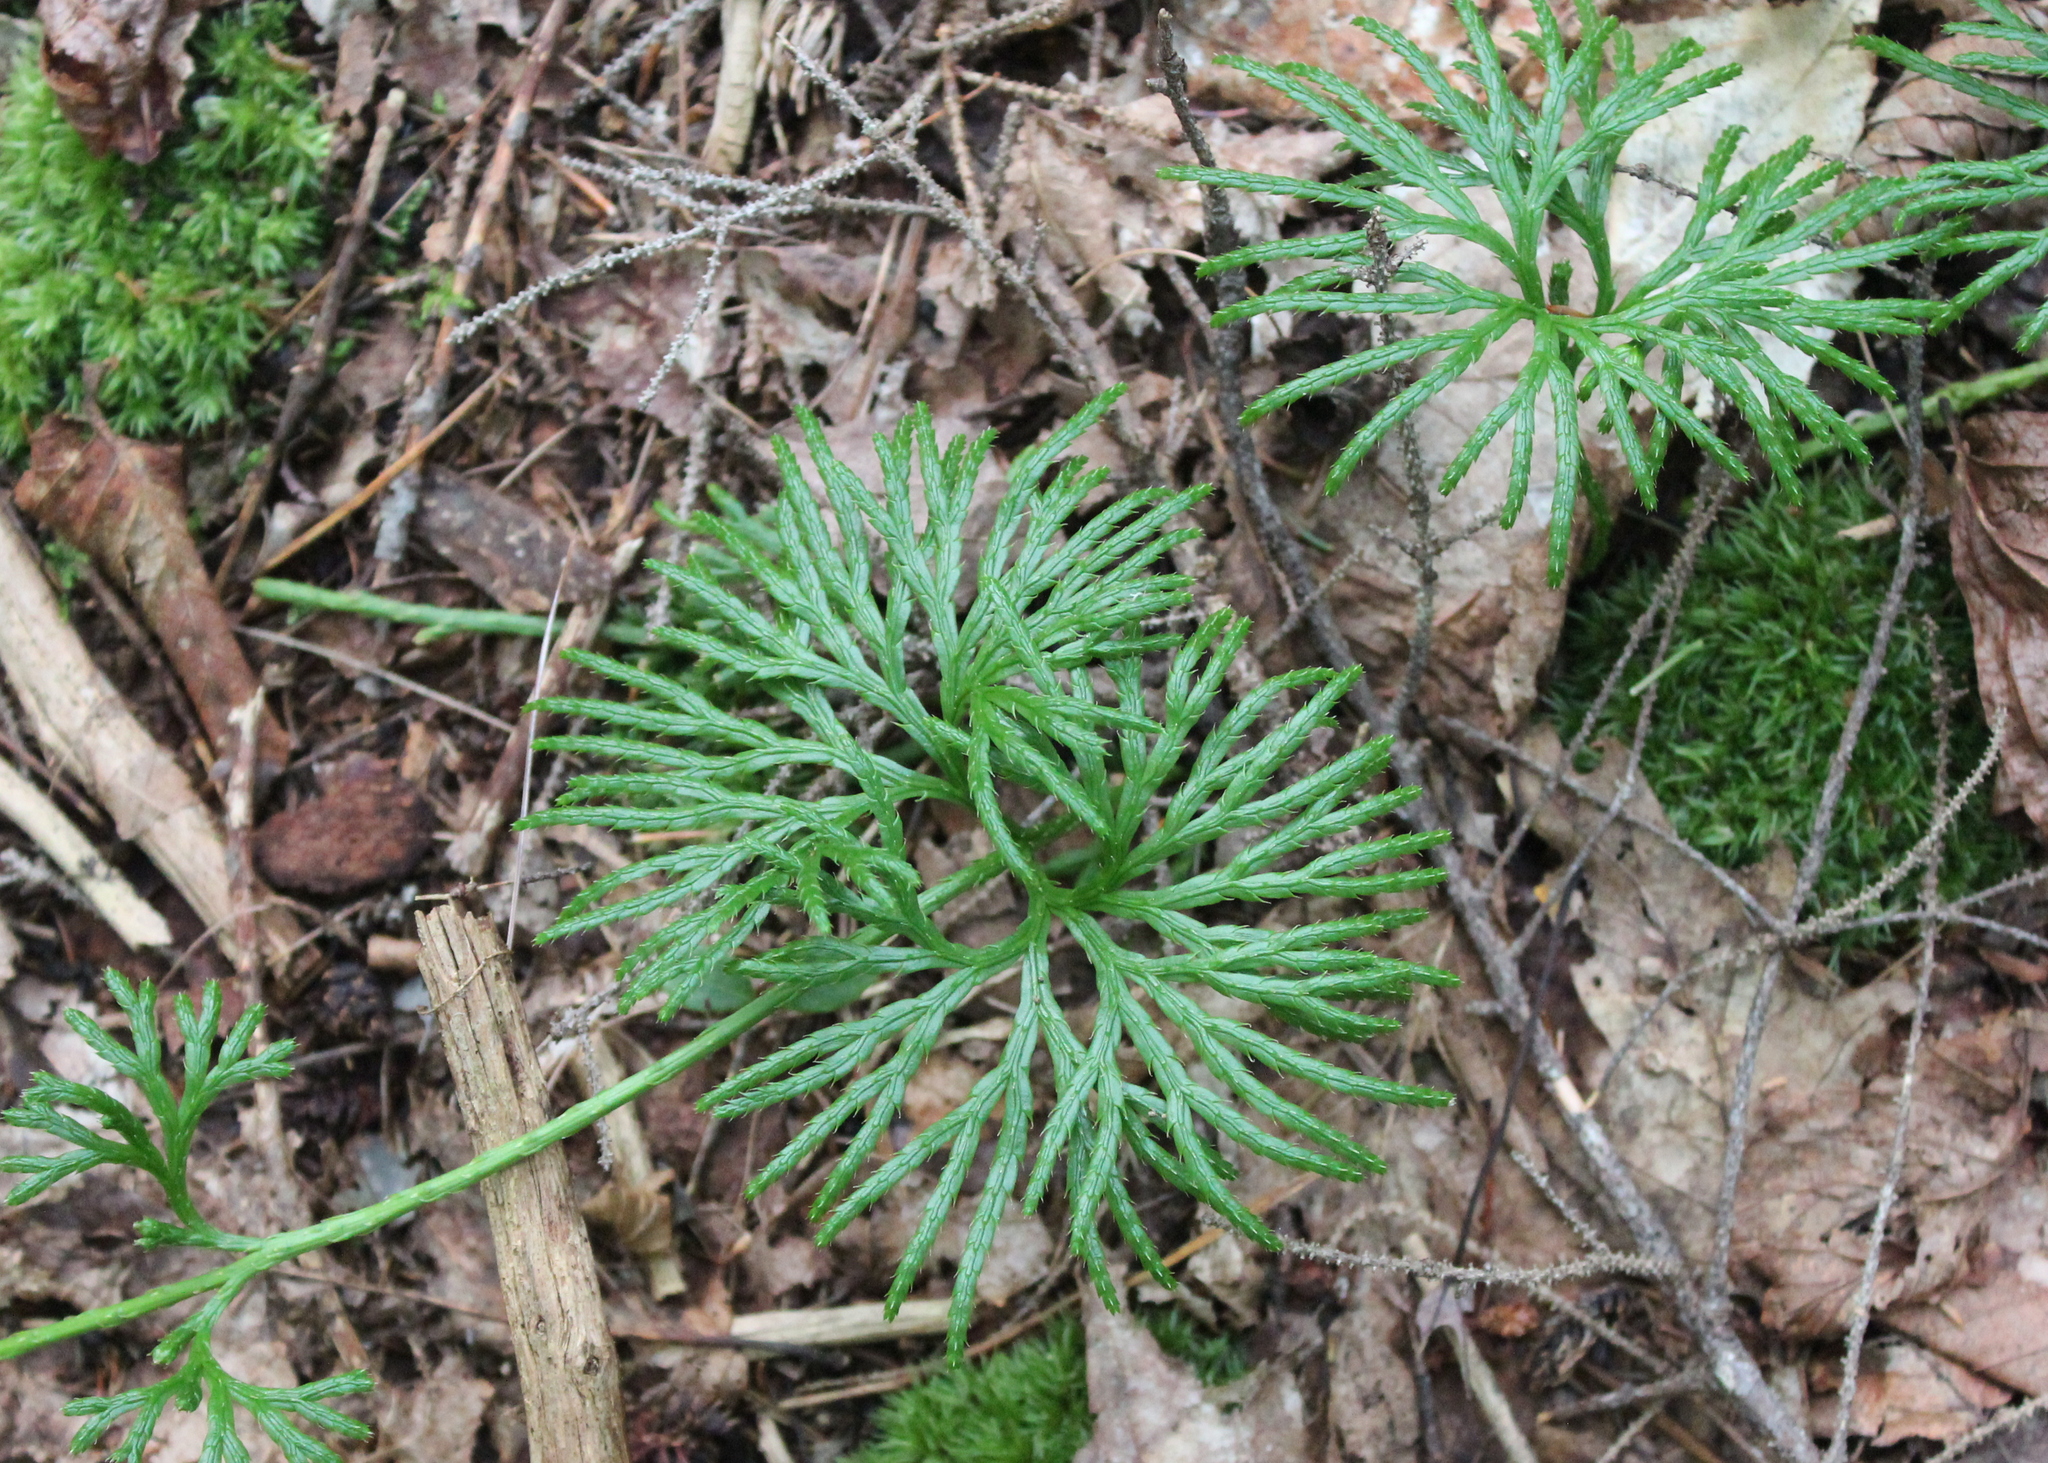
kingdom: Plantae
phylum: Tracheophyta
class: Lycopodiopsida
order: Lycopodiales
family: Lycopodiaceae
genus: Diphasiastrum
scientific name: Diphasiastrum digitatum
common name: Southern running-pine
